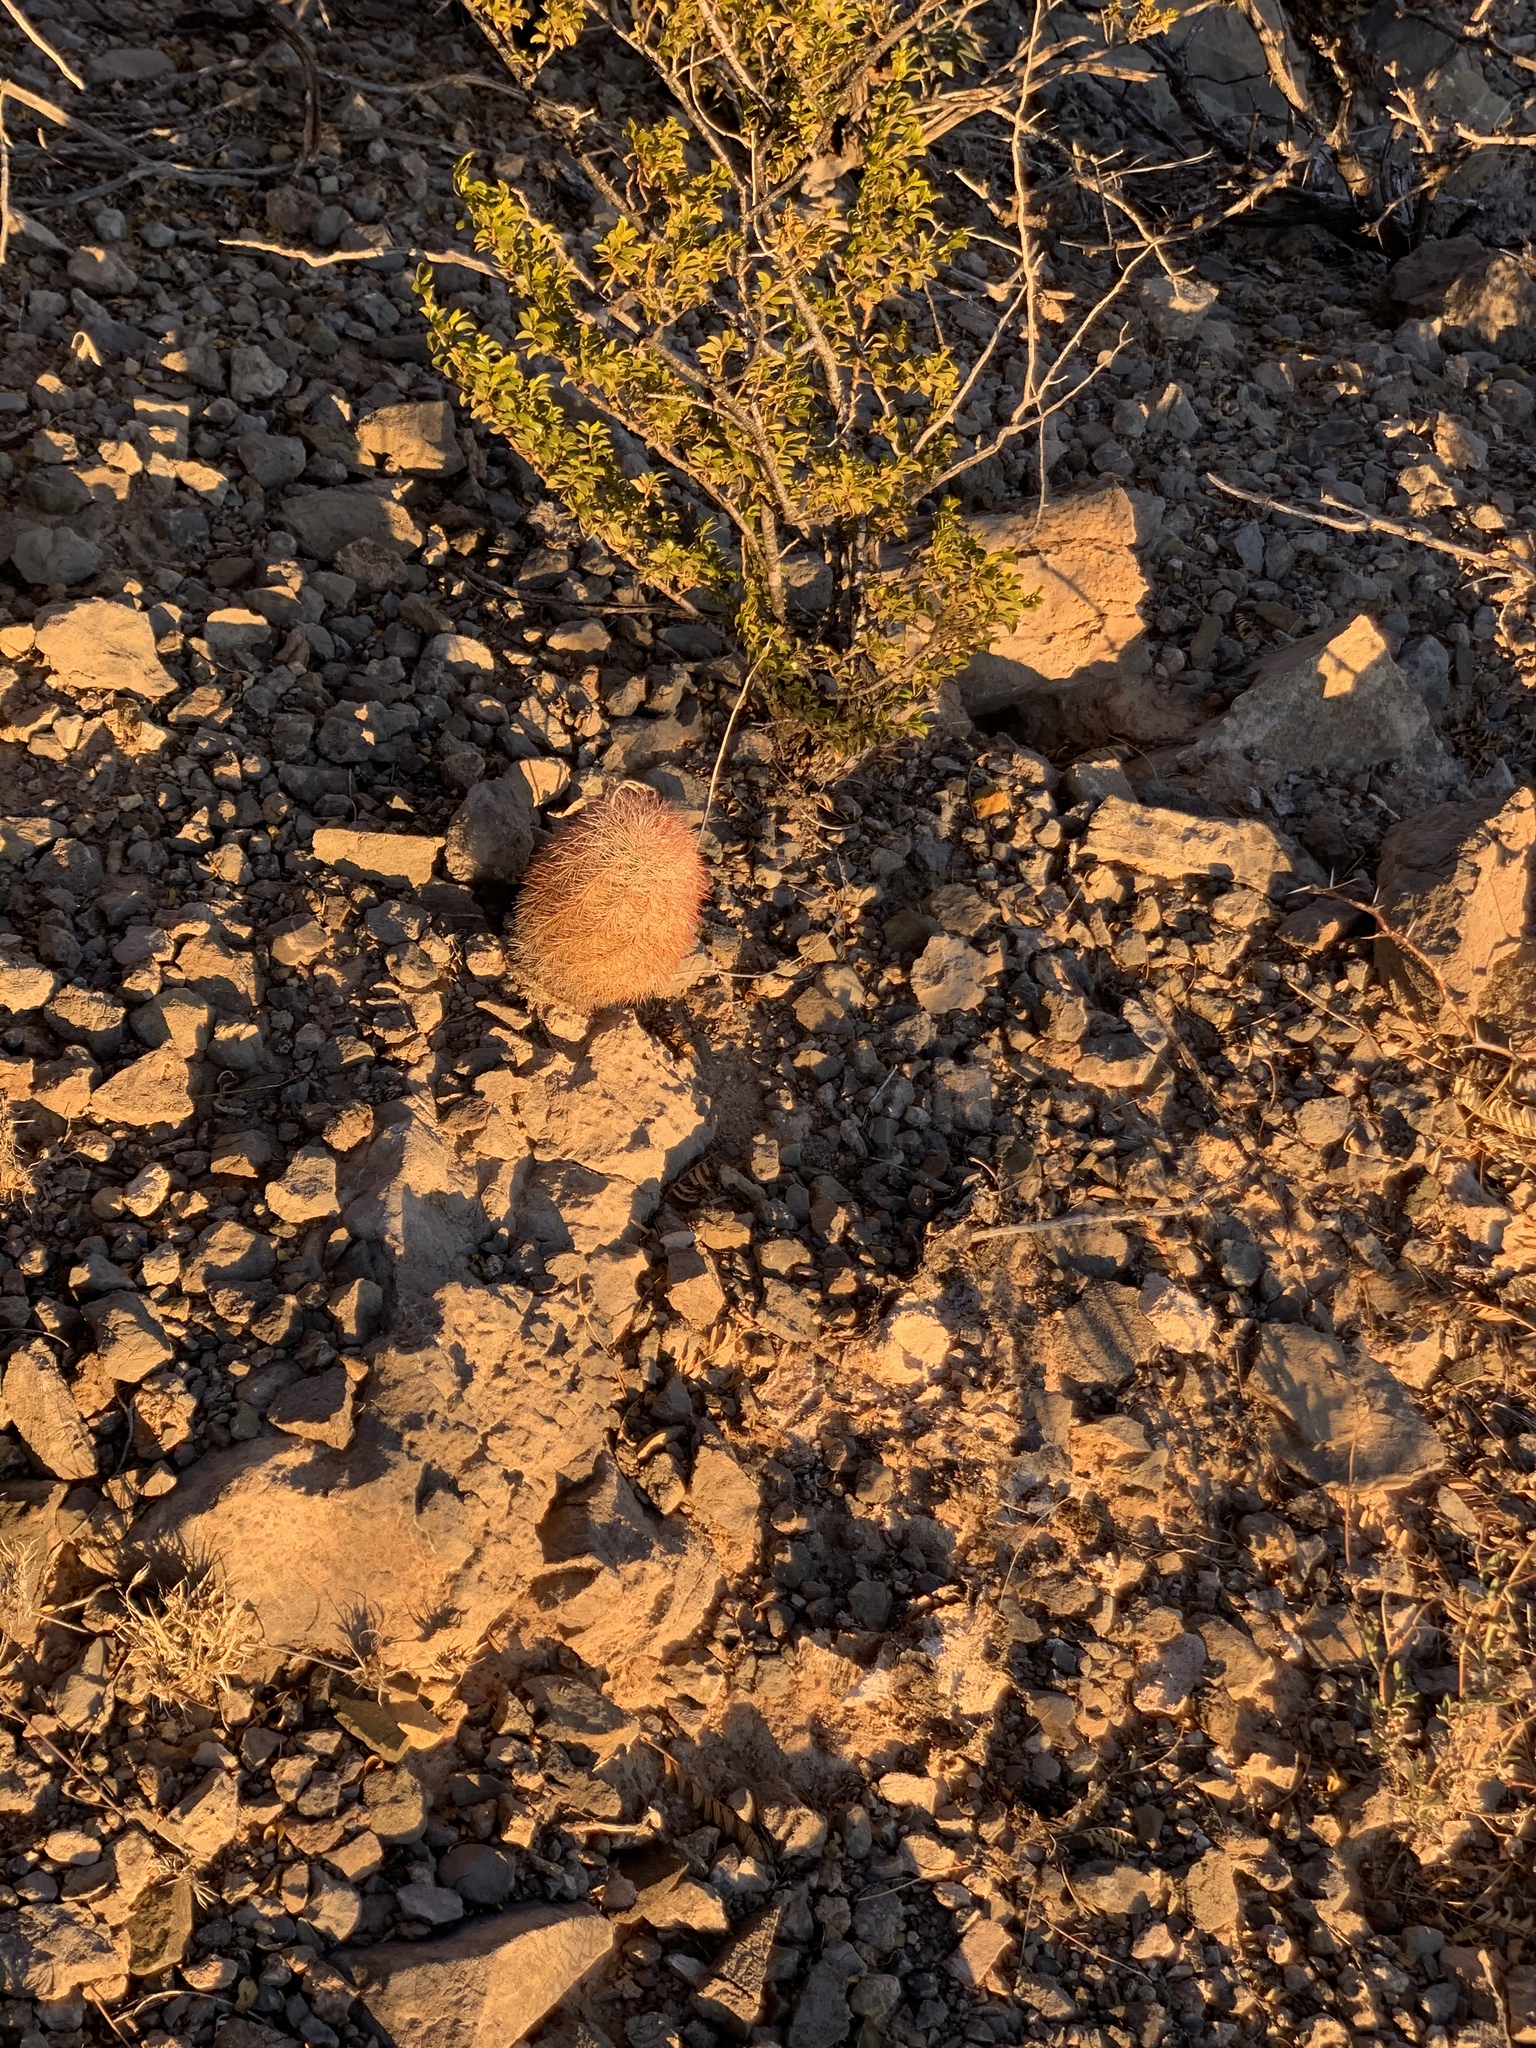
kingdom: Plantae
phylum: Tracheophyta
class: Magnoliopsida
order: Caryophyllales
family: Cactaceae
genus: Echinocereus
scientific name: Echinocereus dasyacanthus
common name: Spiny hedgehog cactus
